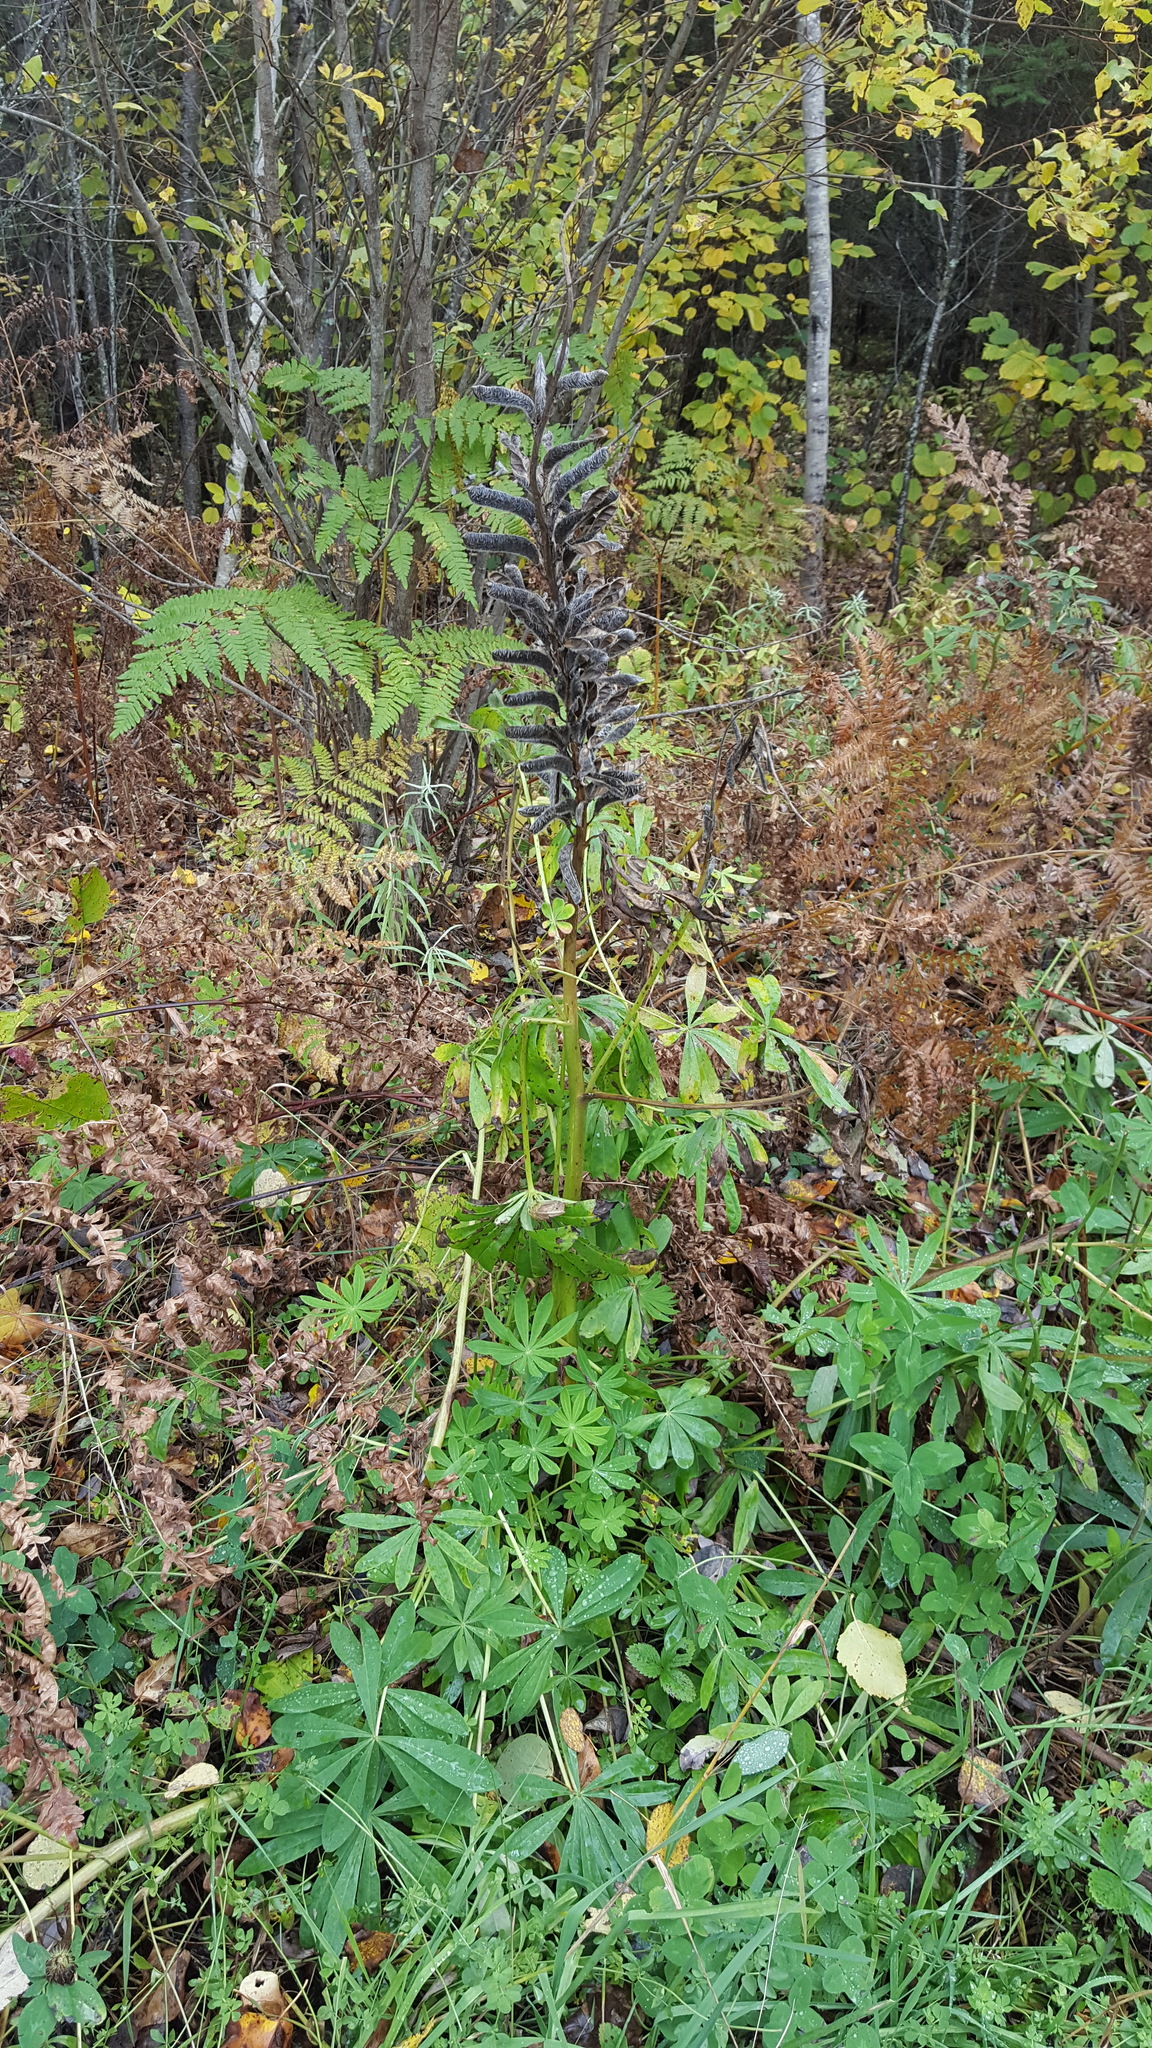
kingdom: Plantae
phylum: Tracheophyta
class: Magnoliopsida
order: Fabales
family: Fabaceae
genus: Lupinus
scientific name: Lupinus polyphyllus
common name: Garden lupin
